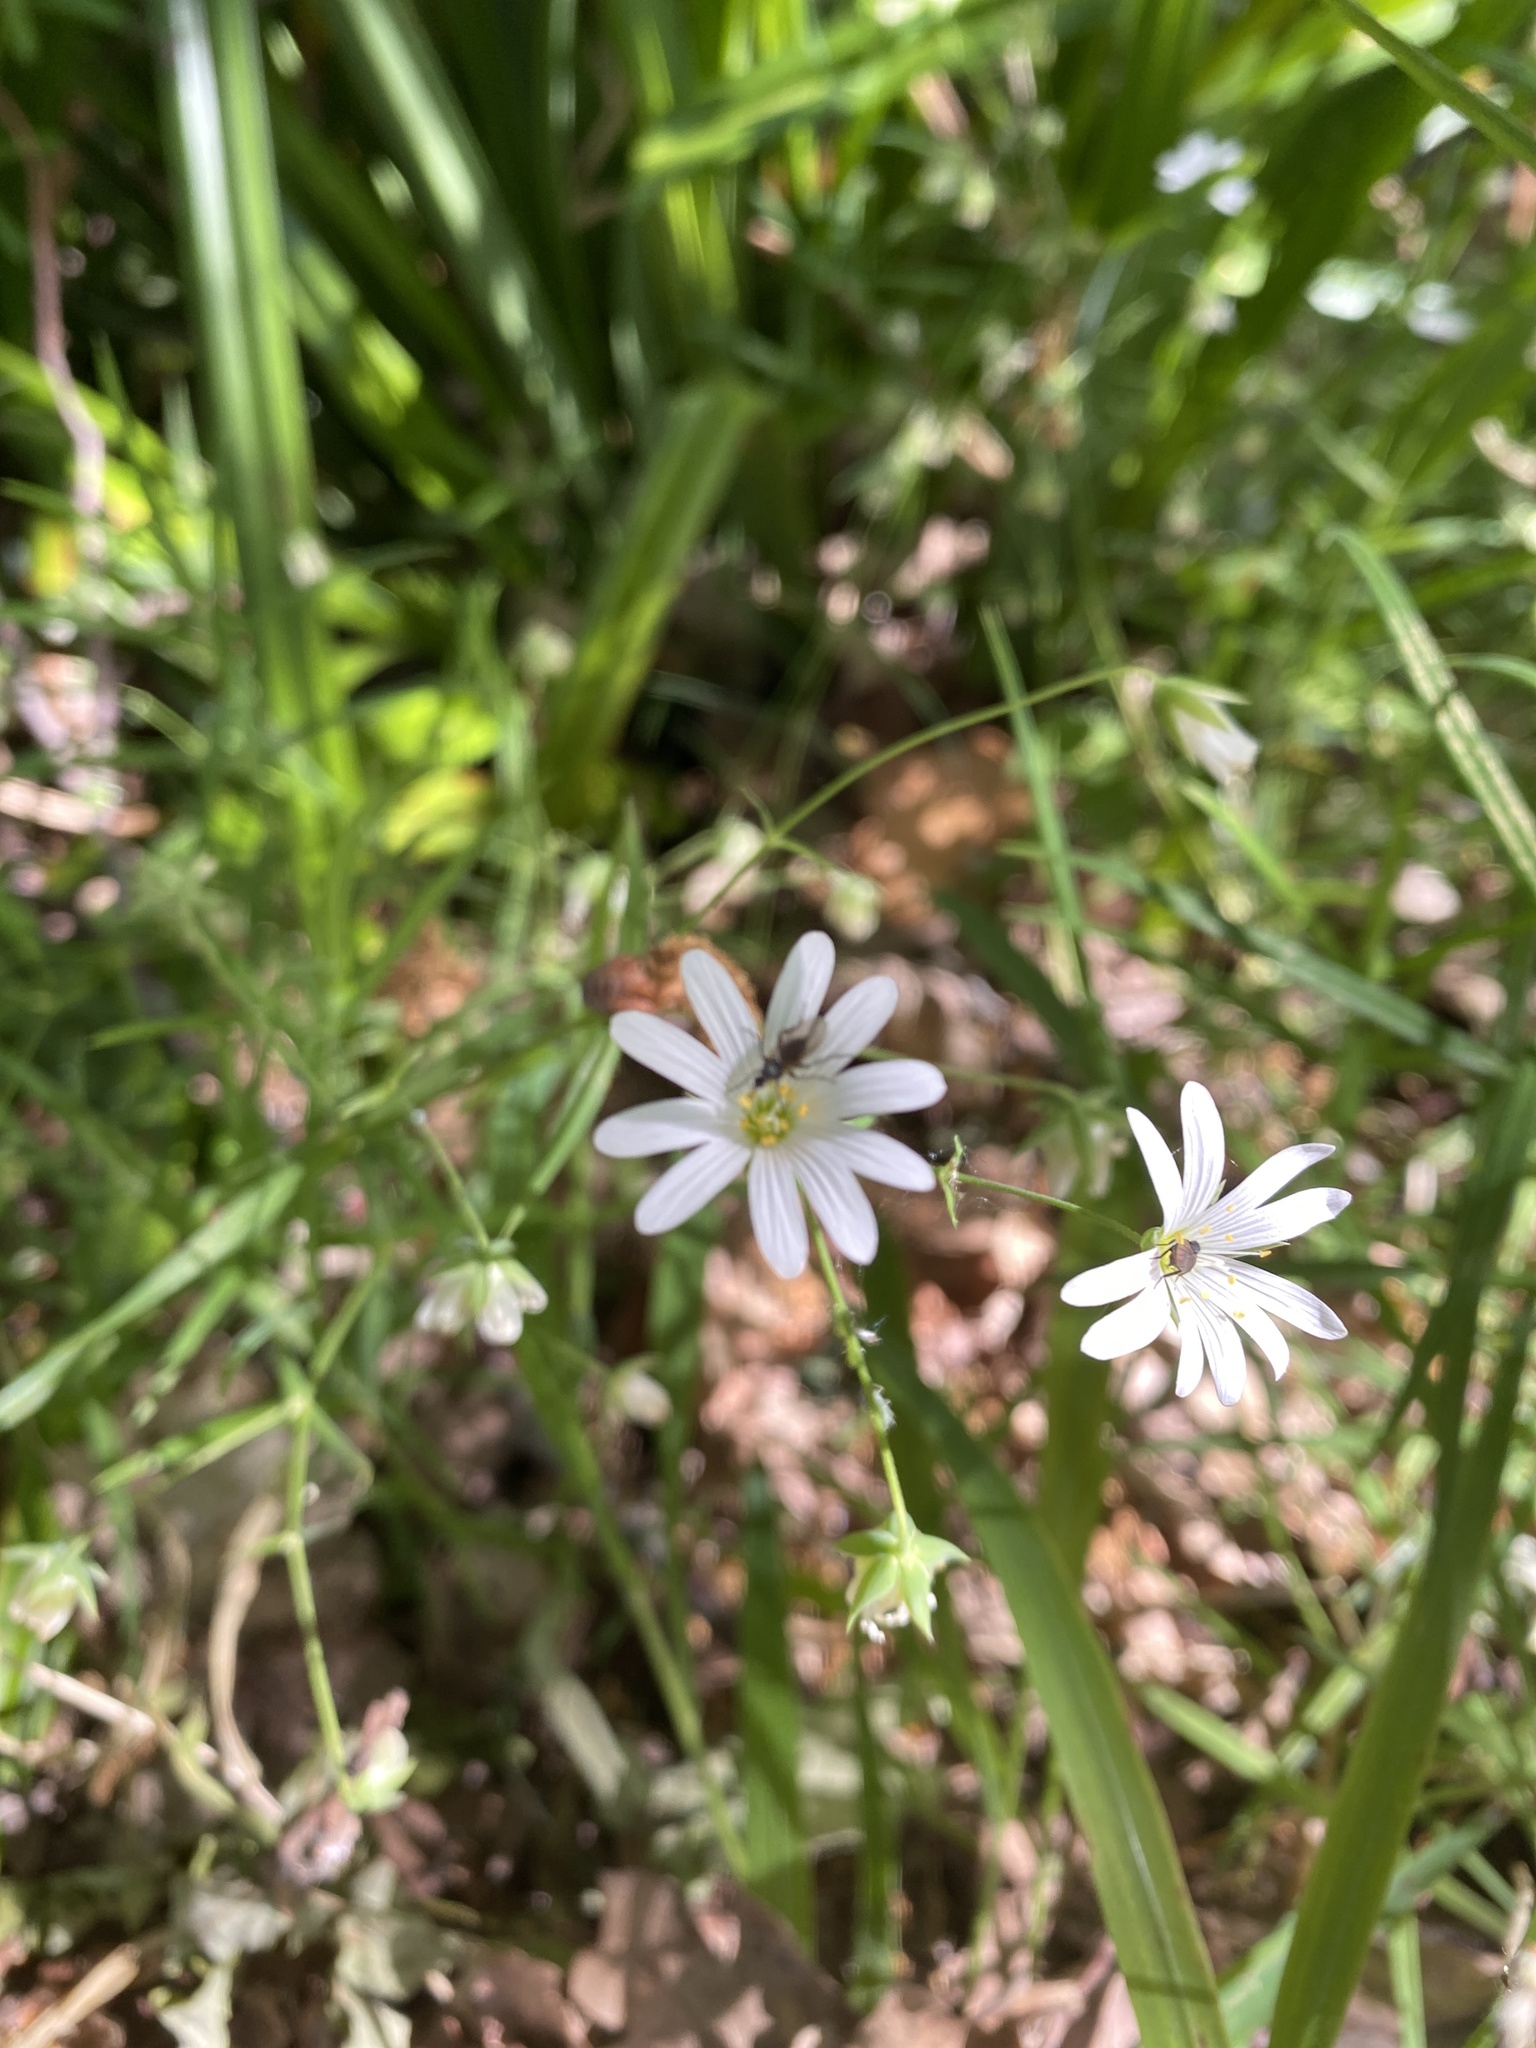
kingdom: Plantae
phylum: Tracheophyta
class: Magnoliopsida
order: Caryophyllales
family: Caryophyllaceae
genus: Rabelera
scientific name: Rabelera holostea
